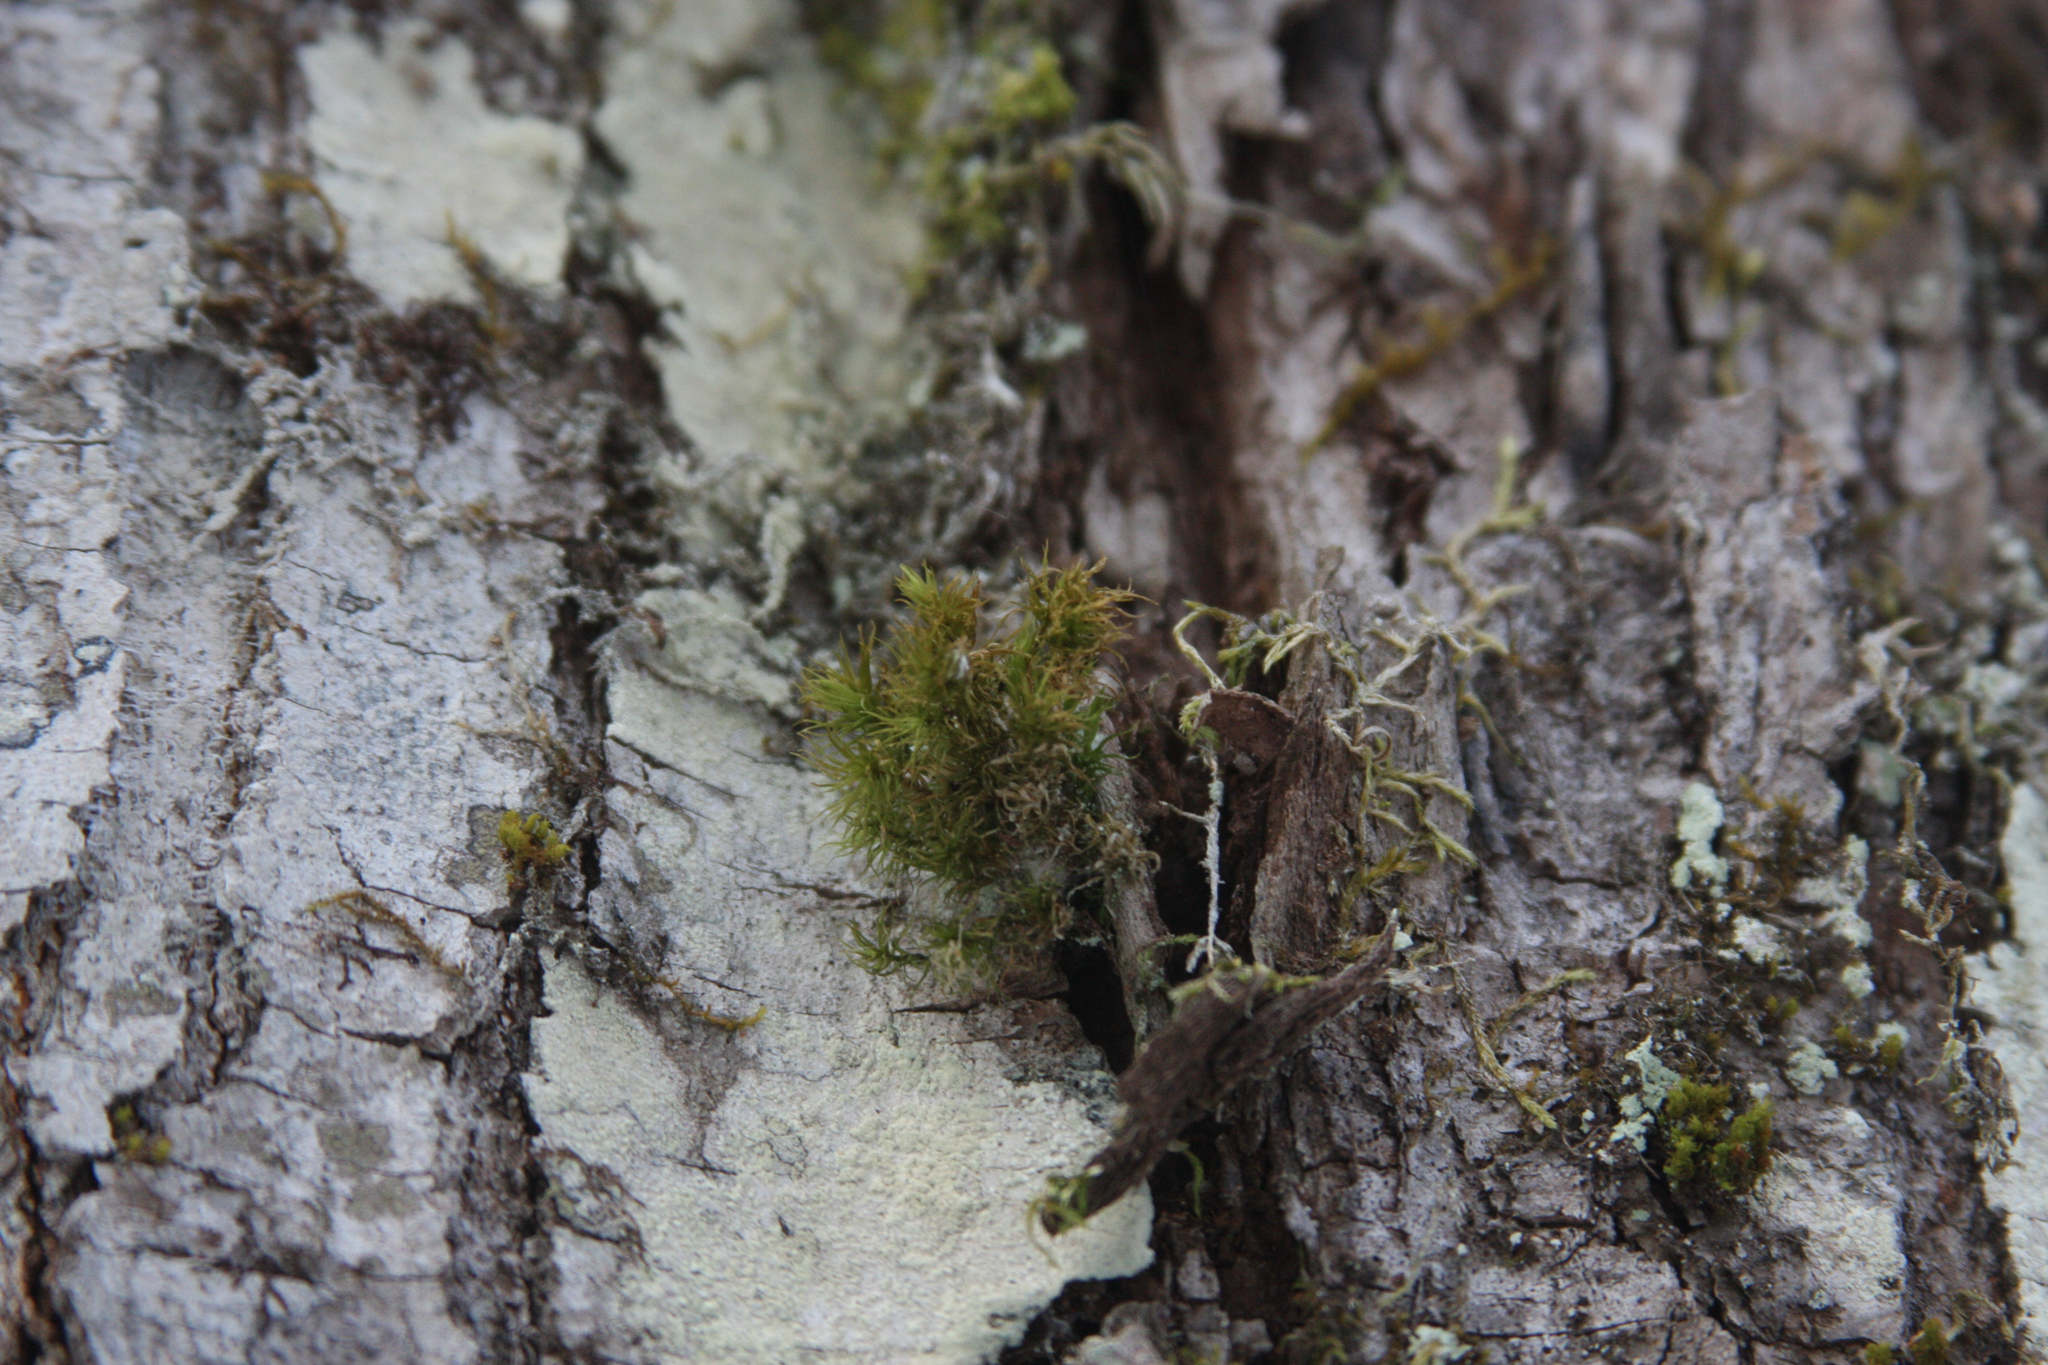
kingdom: Plantae
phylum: Bryophyta
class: Bryopsida
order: Orthotrichales
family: Orthotrichaceae
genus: Ulota
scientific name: Ulota crispa
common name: Crisped pincushion moss
